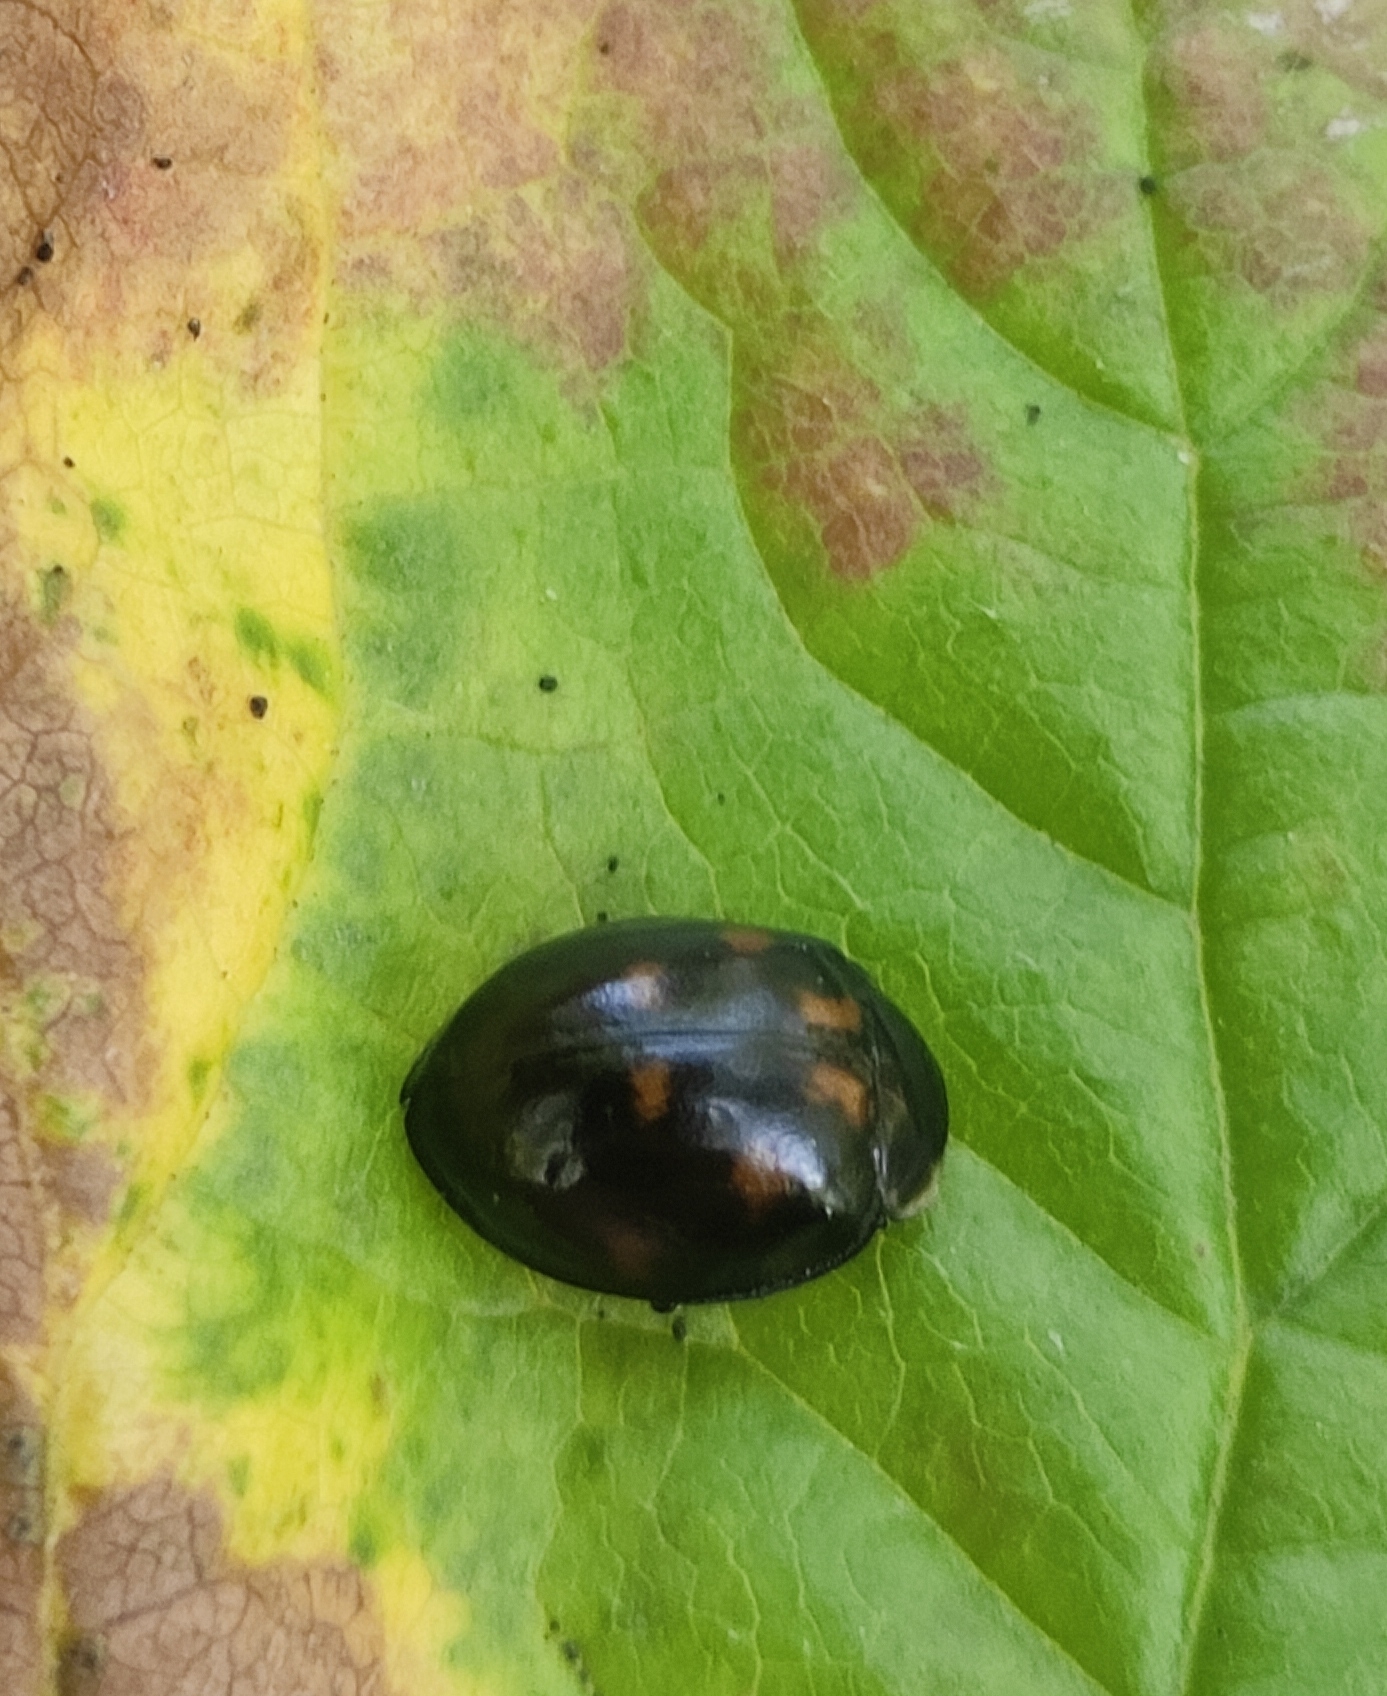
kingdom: Animalia
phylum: Arthropoda
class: Insecta
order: Coleoptera
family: Coccinellidae
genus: Harmonia
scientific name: Harmonia axyridis
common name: Harlequin ladybird
